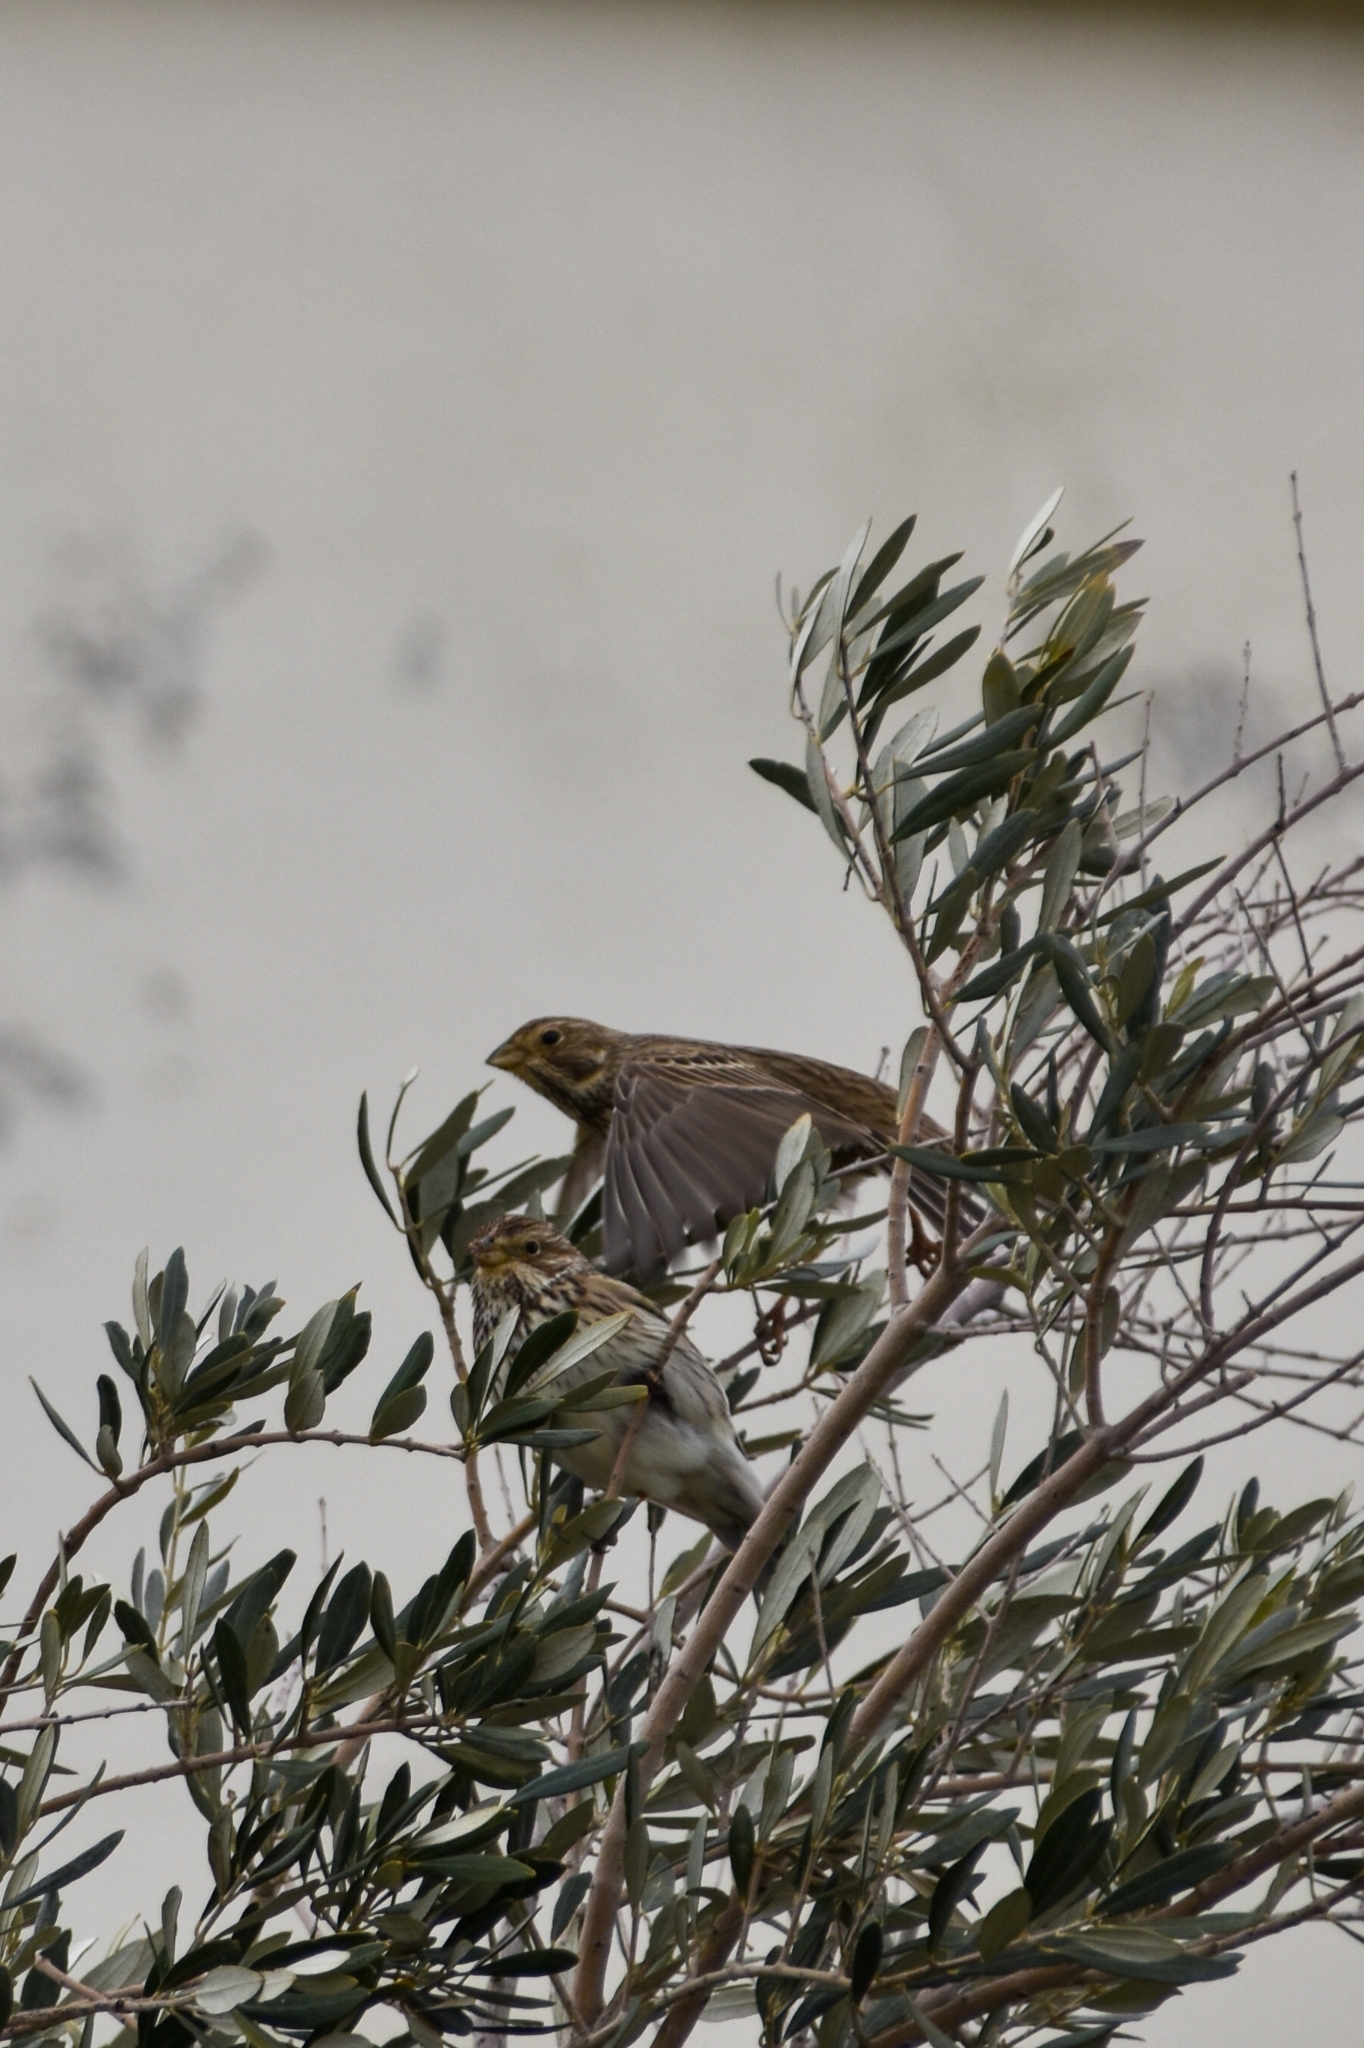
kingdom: Animalia
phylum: Chordata
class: Aves
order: Passeriformes
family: Emberizidae
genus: Emberiza
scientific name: Emberiza calandra
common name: Corn bunting
